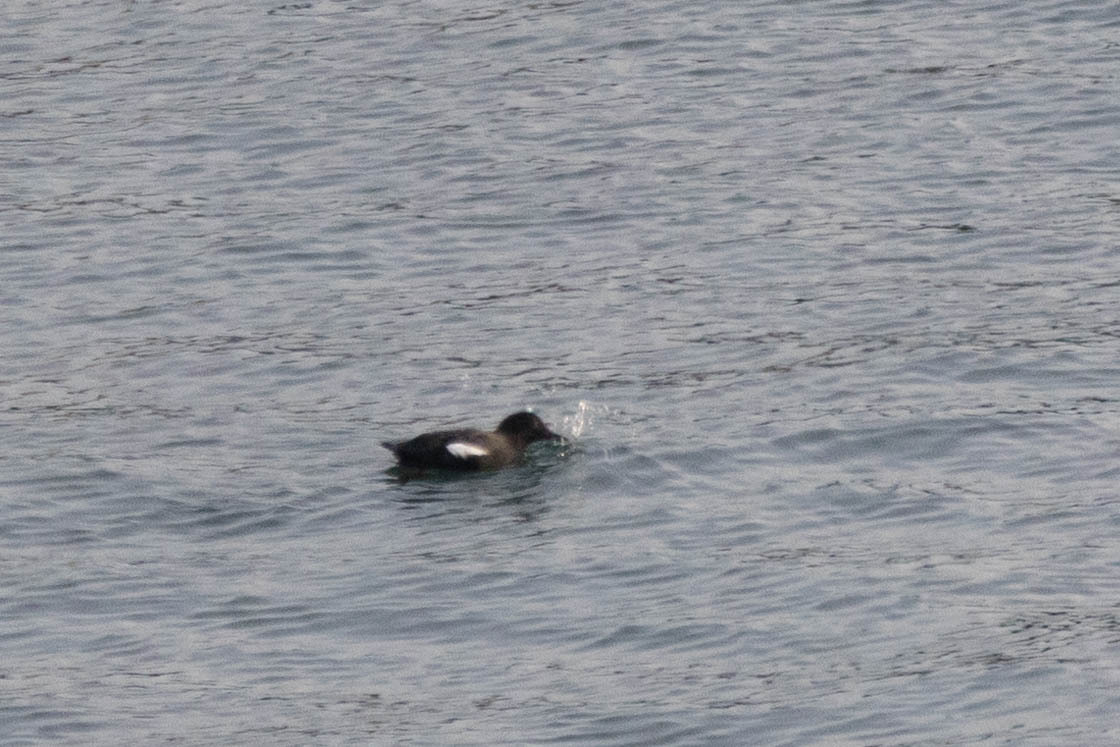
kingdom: Animalia
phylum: Chordata
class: Aves
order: Charadriiformes
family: Alcidae
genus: Cepphus
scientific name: Cepphus columba
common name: Pigeon guillemot
